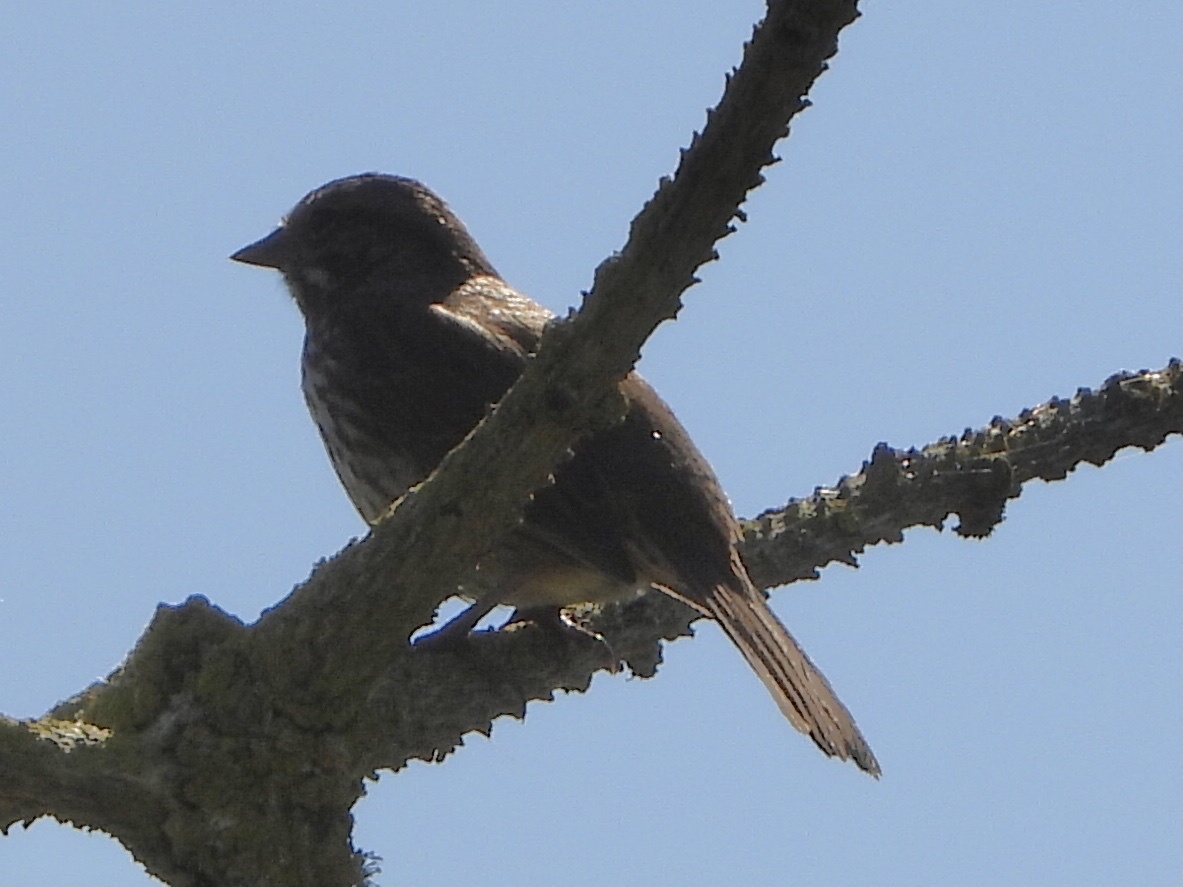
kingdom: Animalia
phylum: Chordata
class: Aves
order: Passeriformes
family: Passerellidae
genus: Melospiza
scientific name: Melospiza melodia
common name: Song sparrow
